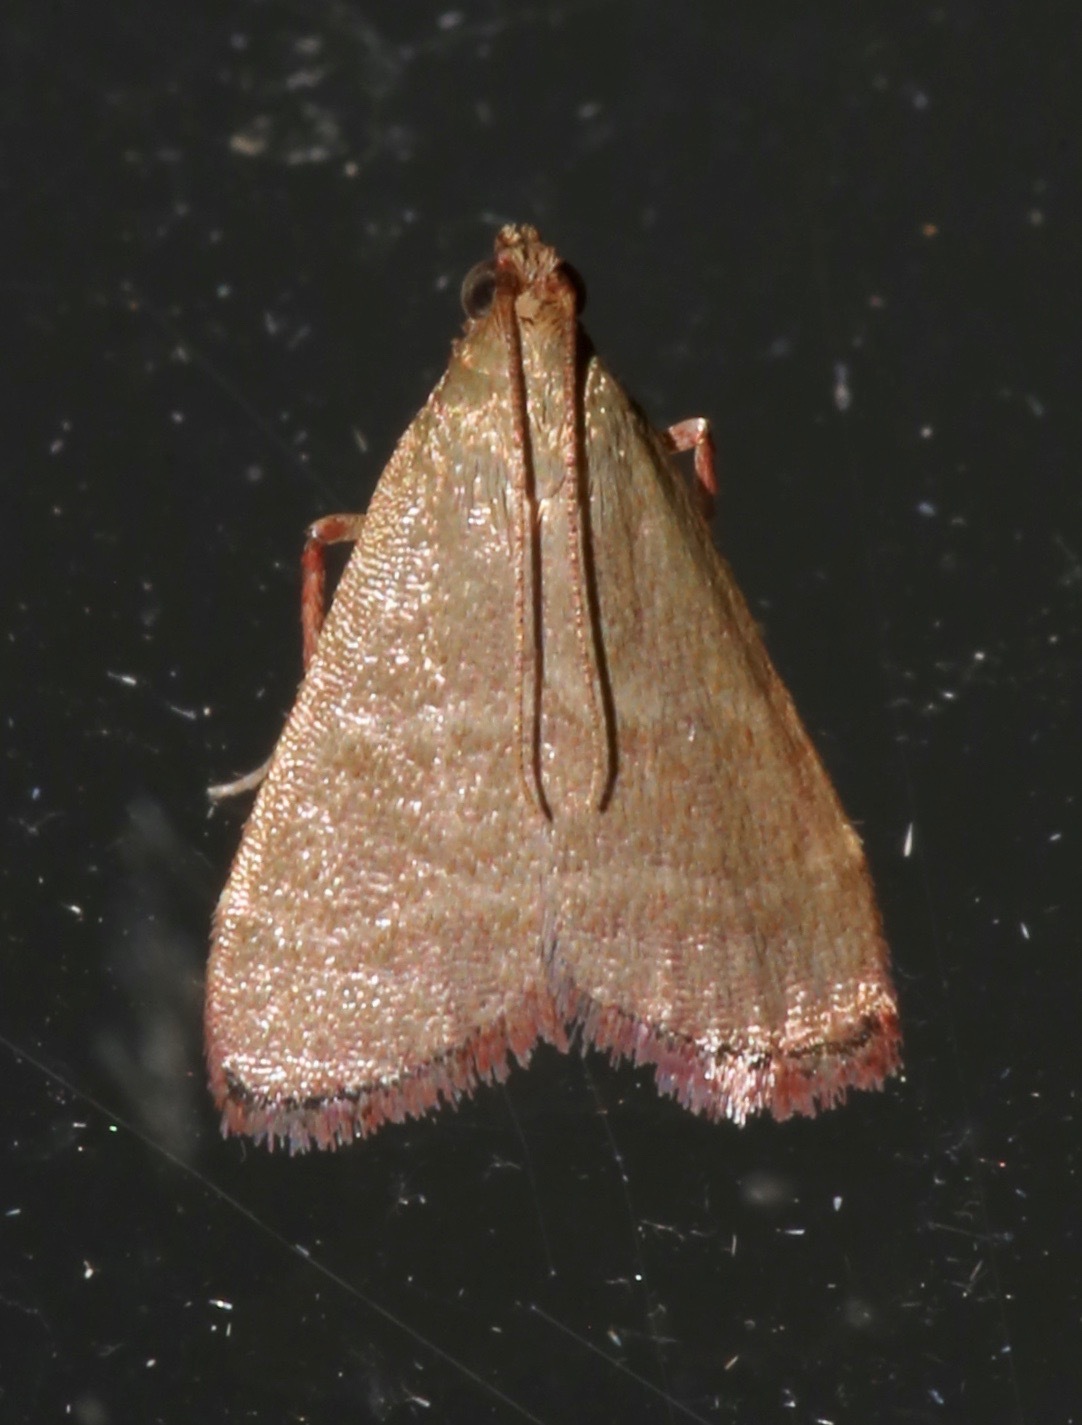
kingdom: Animalia
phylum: Arthropoda
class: Insecta
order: Lepidoptera
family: Pyralidae
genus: Arta
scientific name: Arta olivalis
